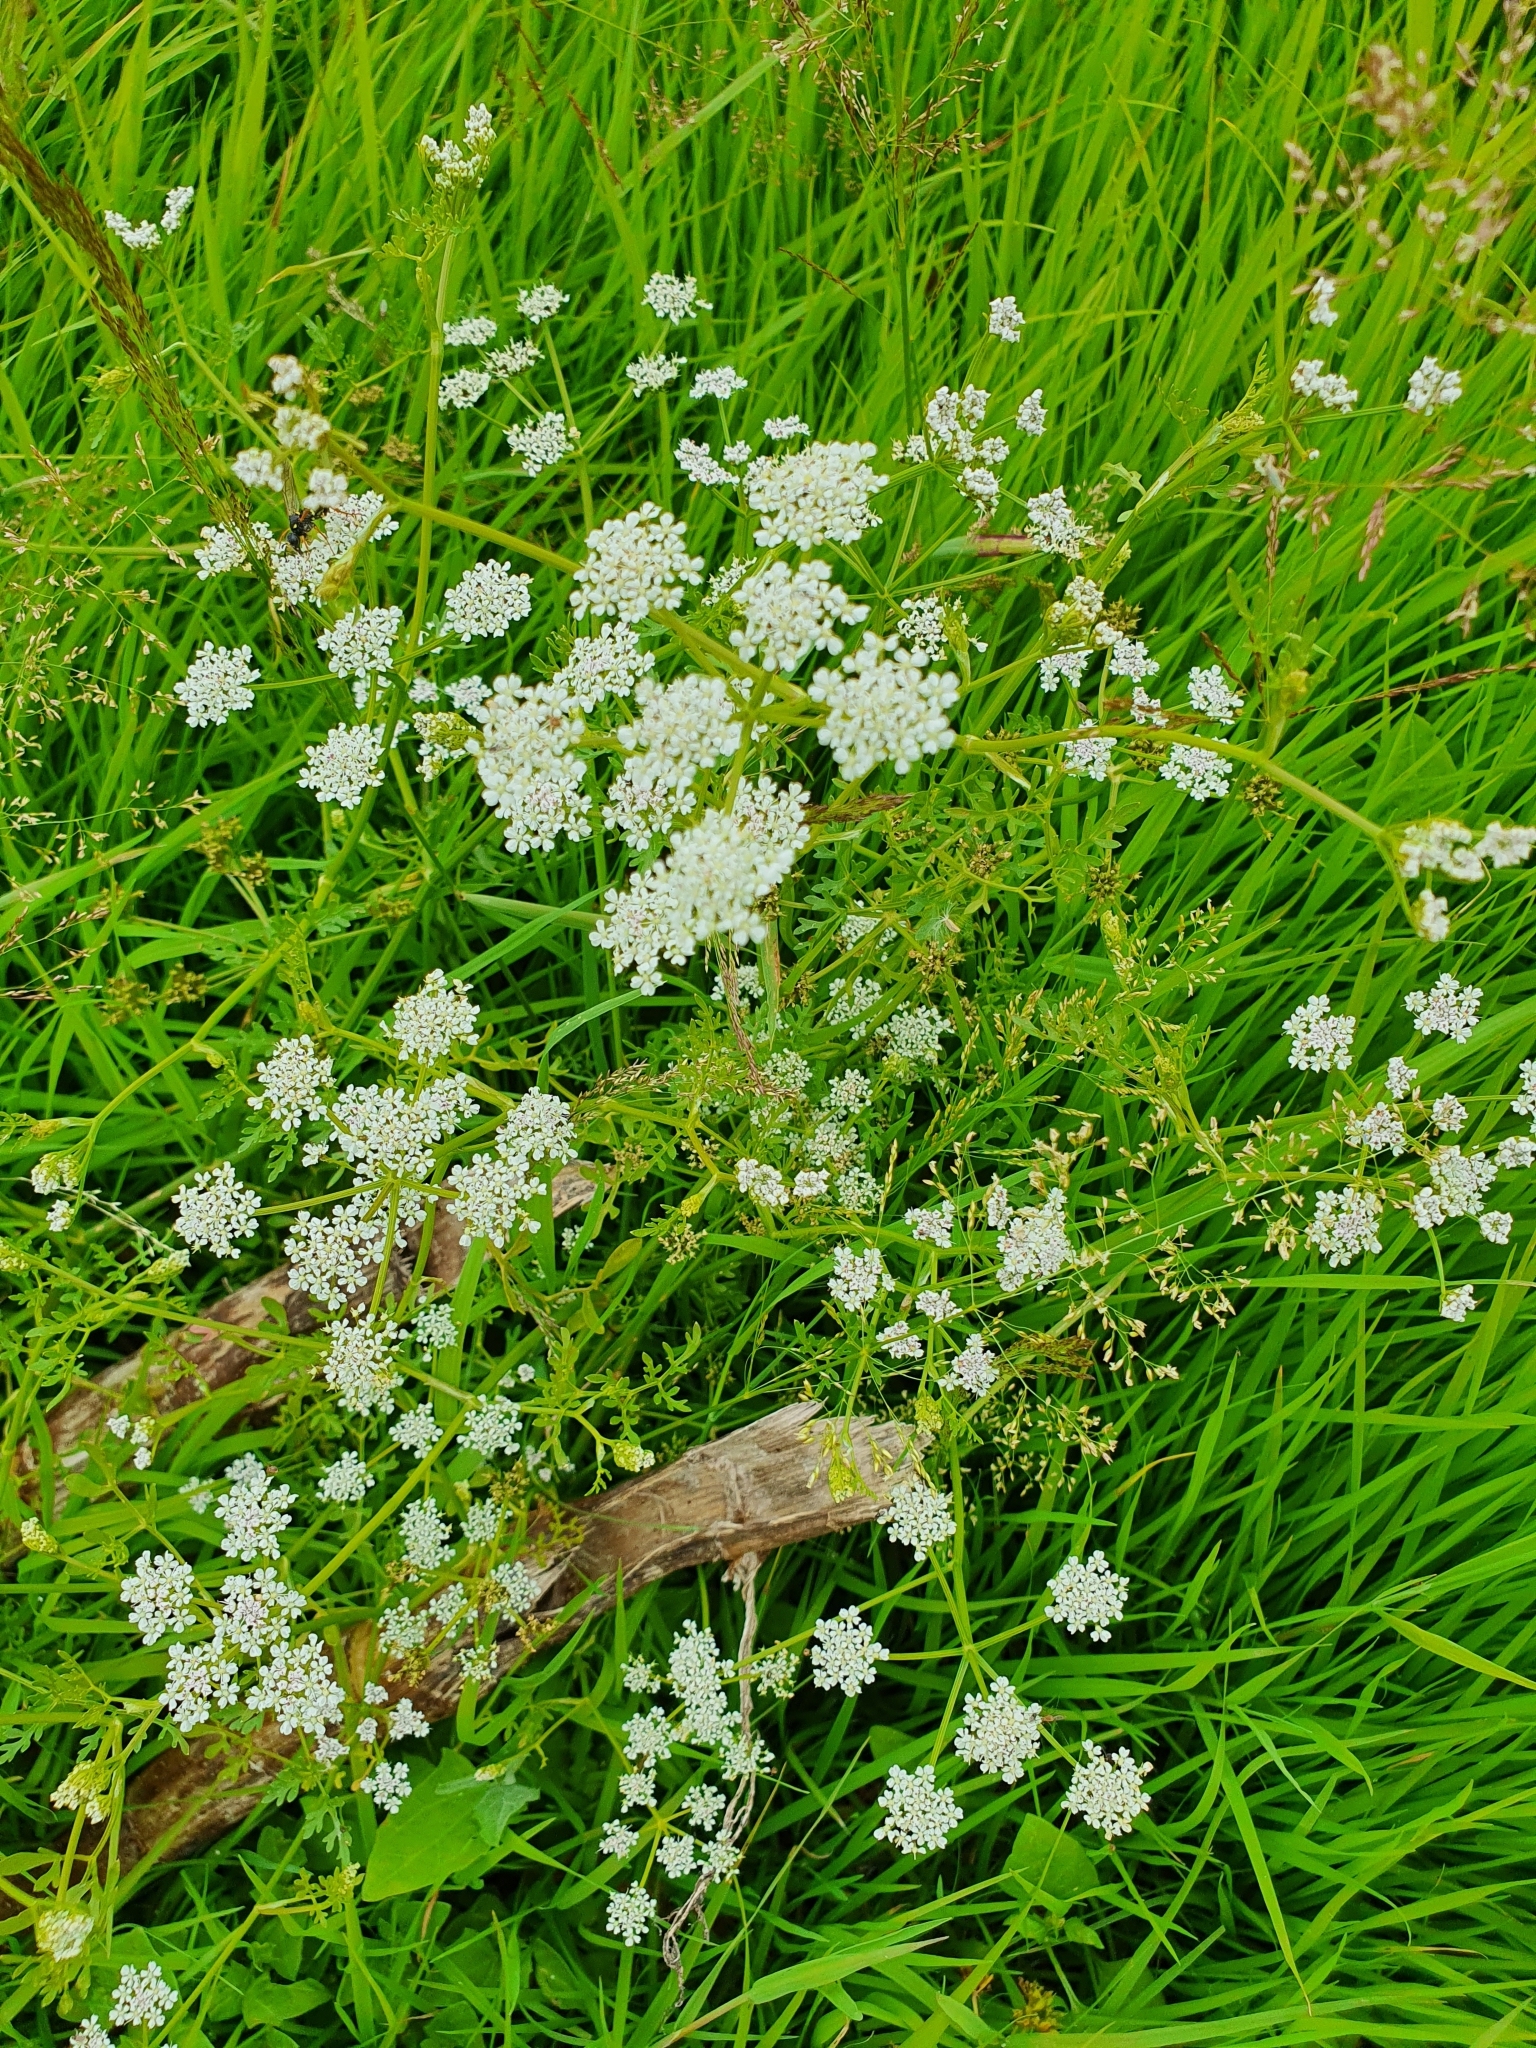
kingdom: Plantae
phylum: Tracheophyta
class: Magnoliopsida
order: Apiales
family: Apiaceae
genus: Oenanthe
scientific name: Oenanthe aquatica
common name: Fine-leaved water-dropwort
